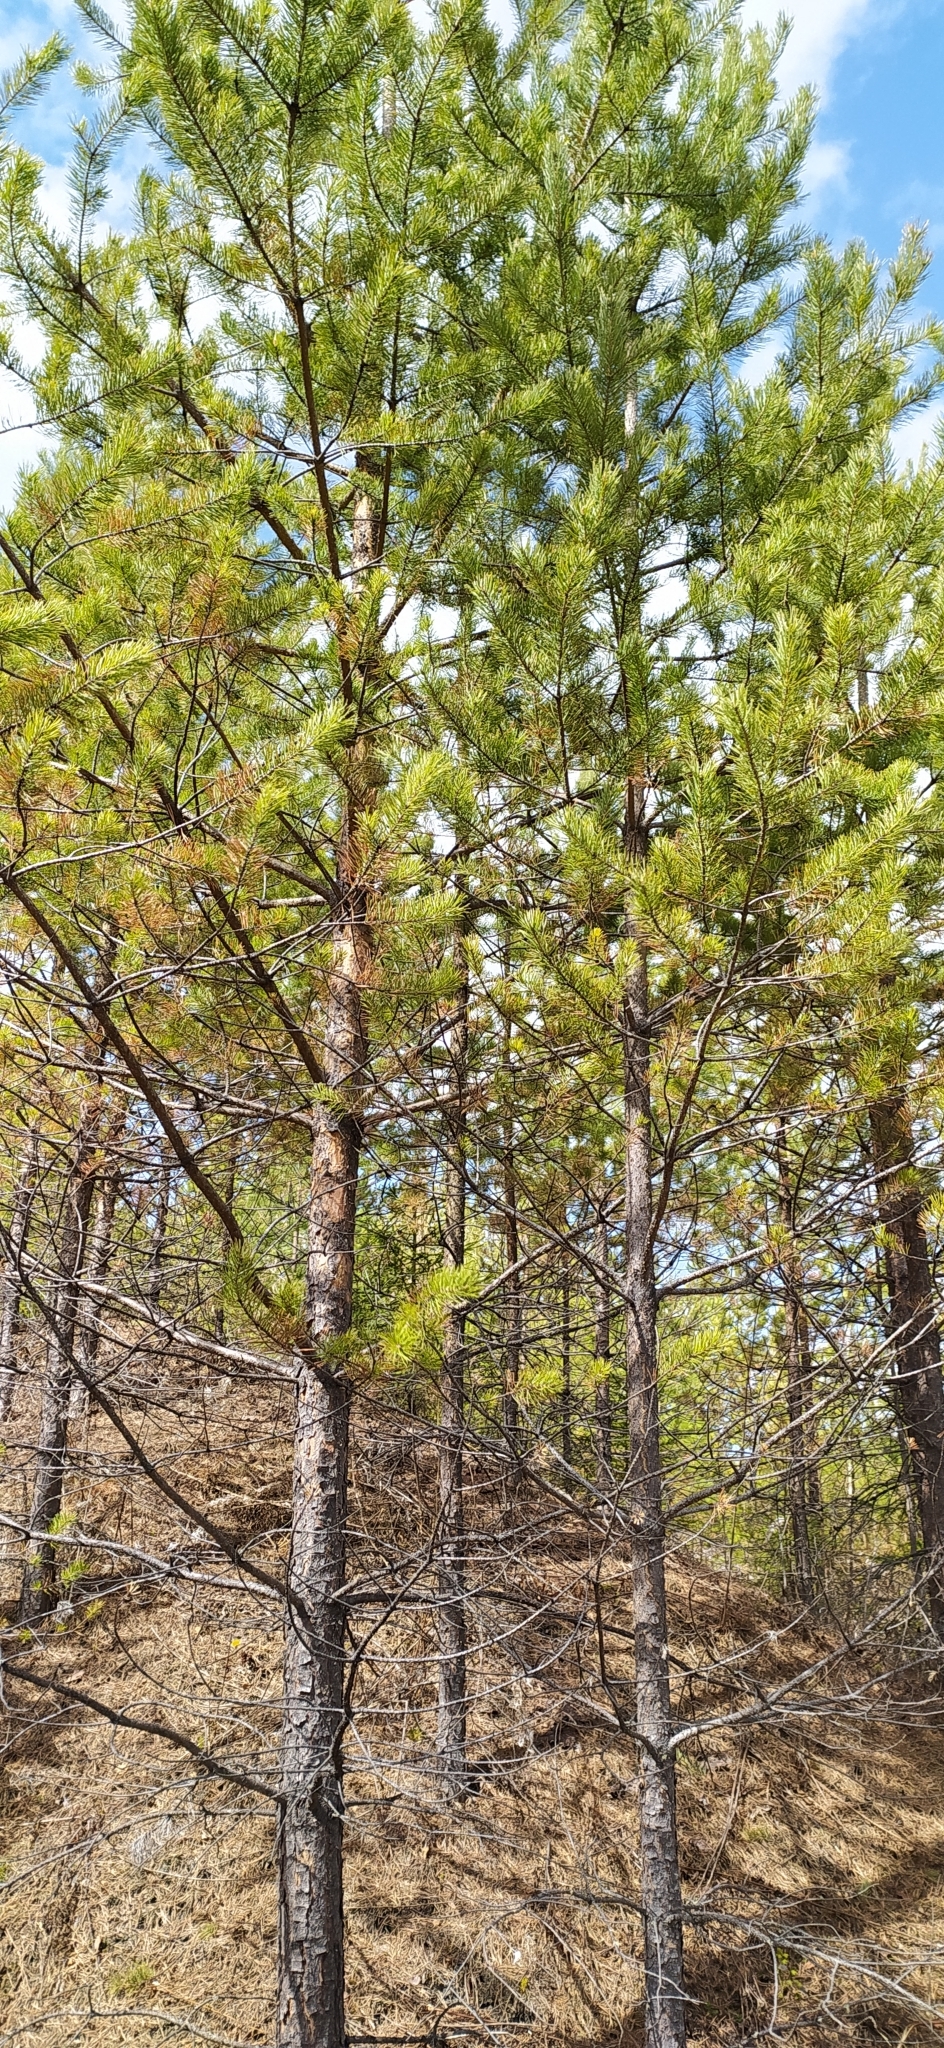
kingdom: Plantae
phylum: Tracheophyta
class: Pinopsida
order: Pinales
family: Pinaceae
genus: Pinus
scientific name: Pinus sylvestris
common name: Scots pine
